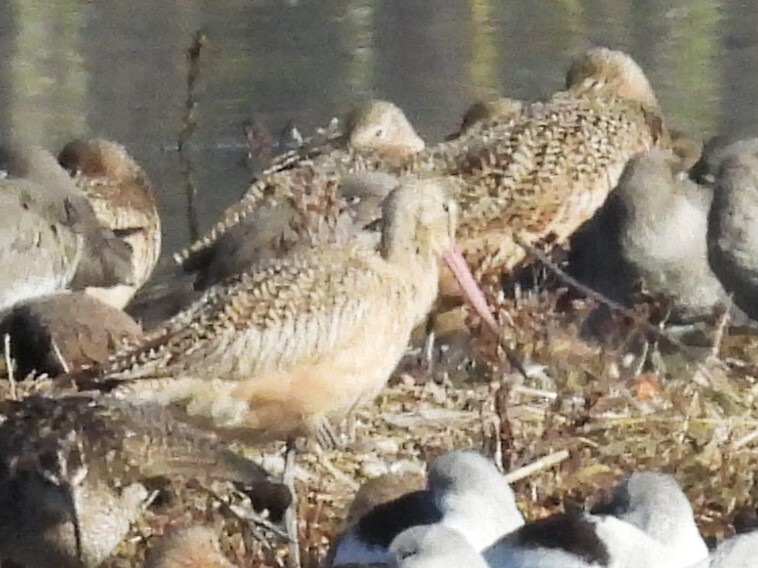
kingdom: Animalia
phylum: Chordata
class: Aves
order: Charadriiformes
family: Scolopacidae
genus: Limosa
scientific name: Limosa fedoa
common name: Marbled godwit
